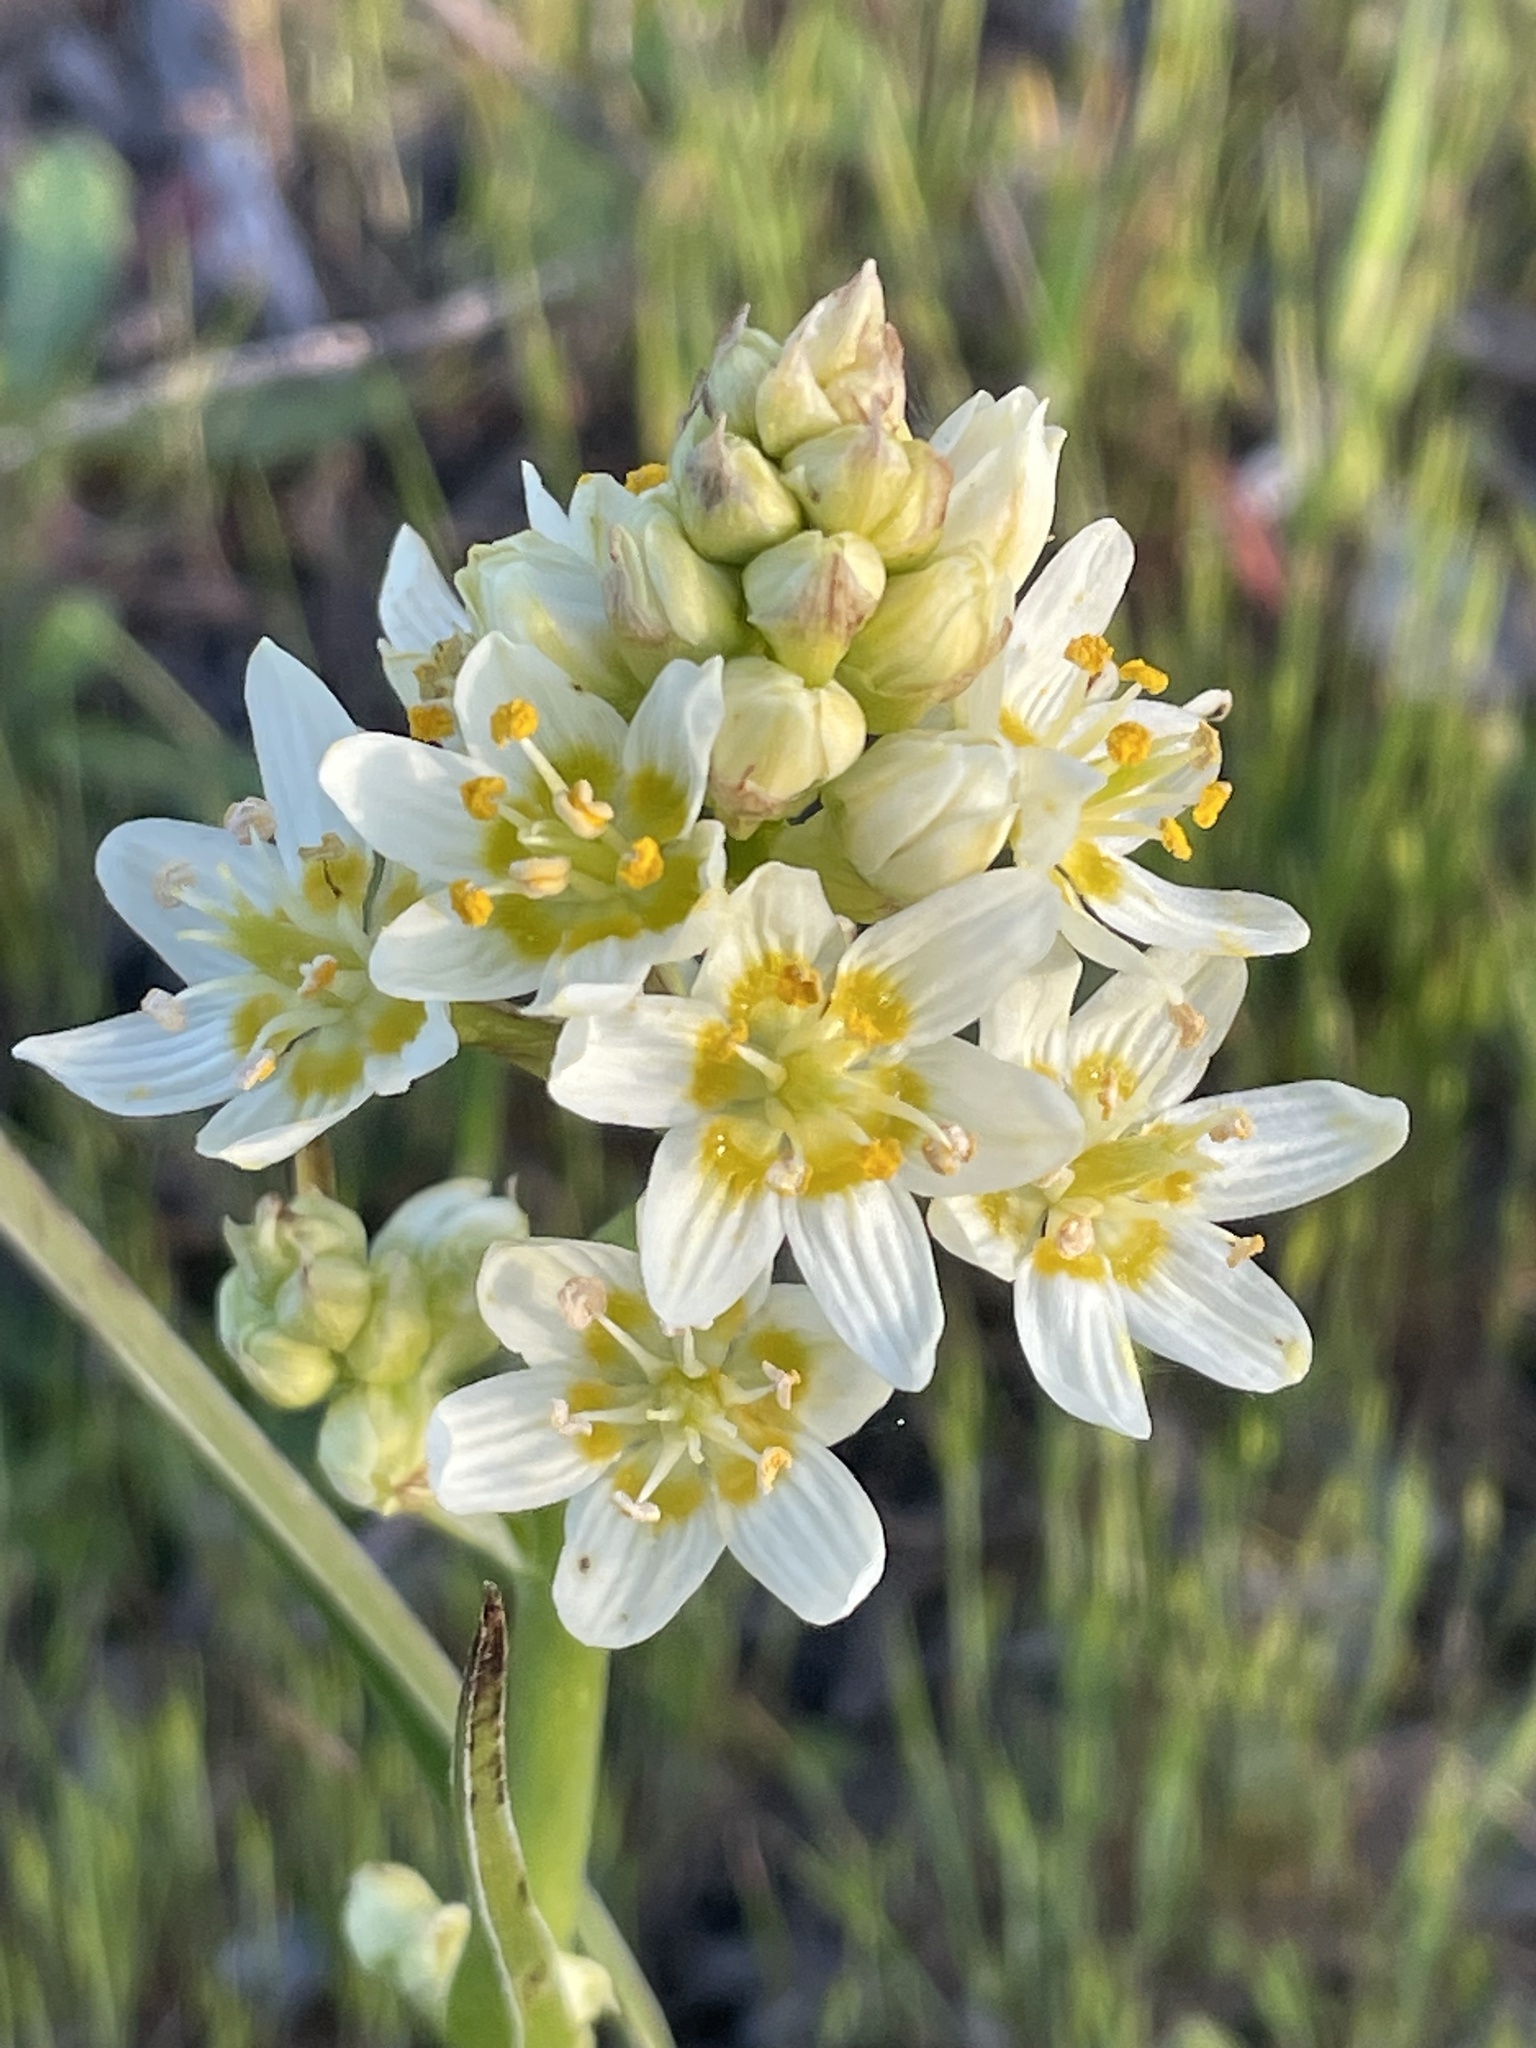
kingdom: Plantae
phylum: Tracheophyta
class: Liliopsida
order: Liliales
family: Melanthiaceae
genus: Toxicoscordion
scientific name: Toxicoscordion fremontii
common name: Fremont's death camas
